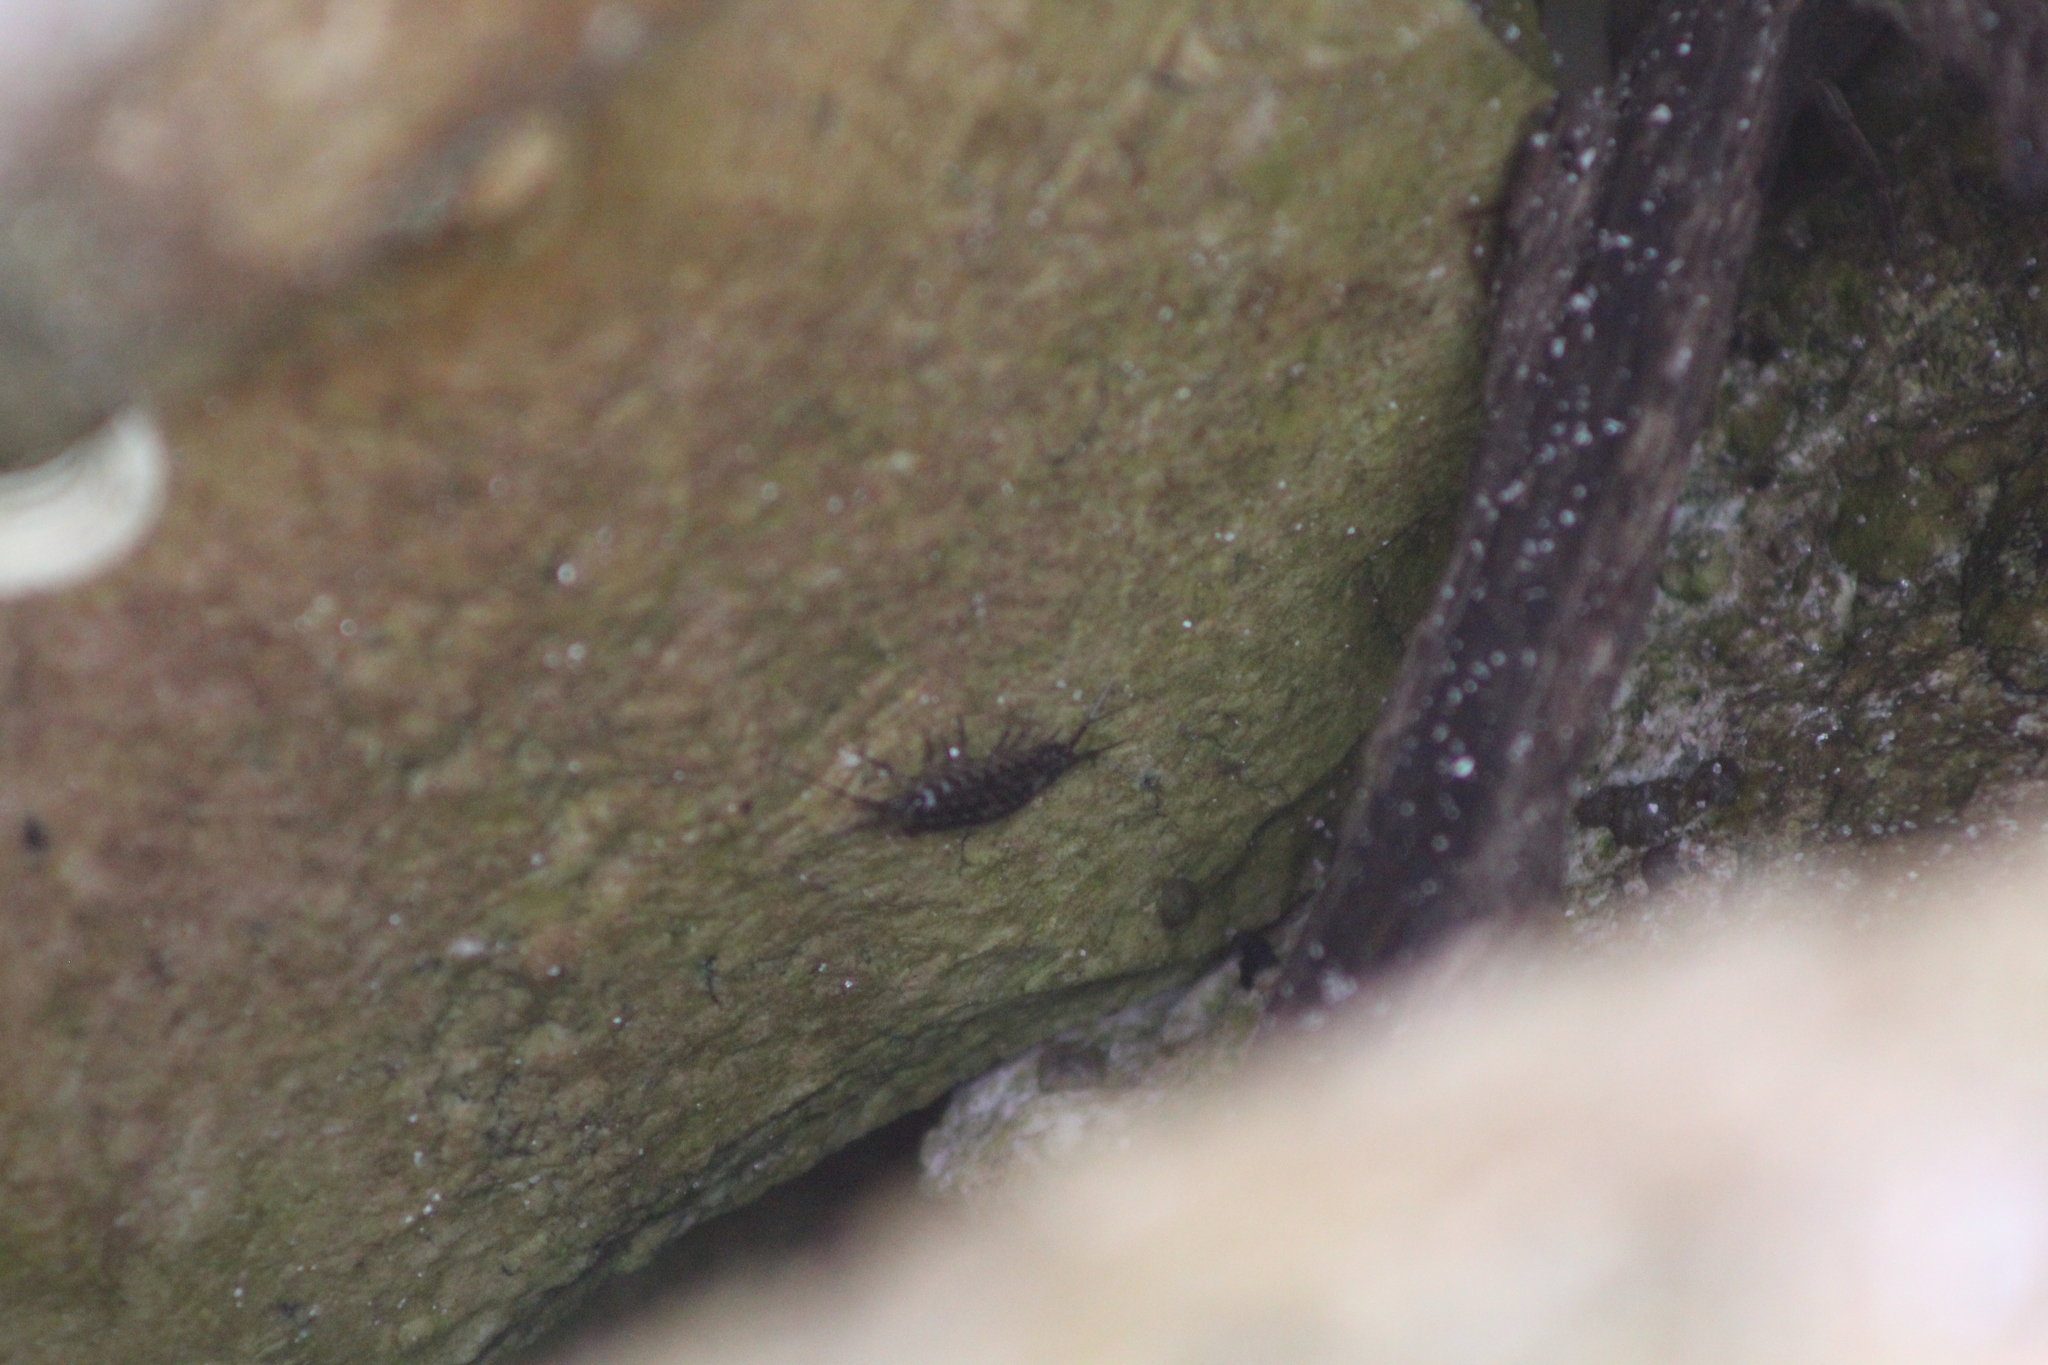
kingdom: Animalia
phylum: Arthropoda
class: Malacostraca
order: Isopoda
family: Ligiidae
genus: Ligia
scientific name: Ligia exotica
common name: Wharf roach
